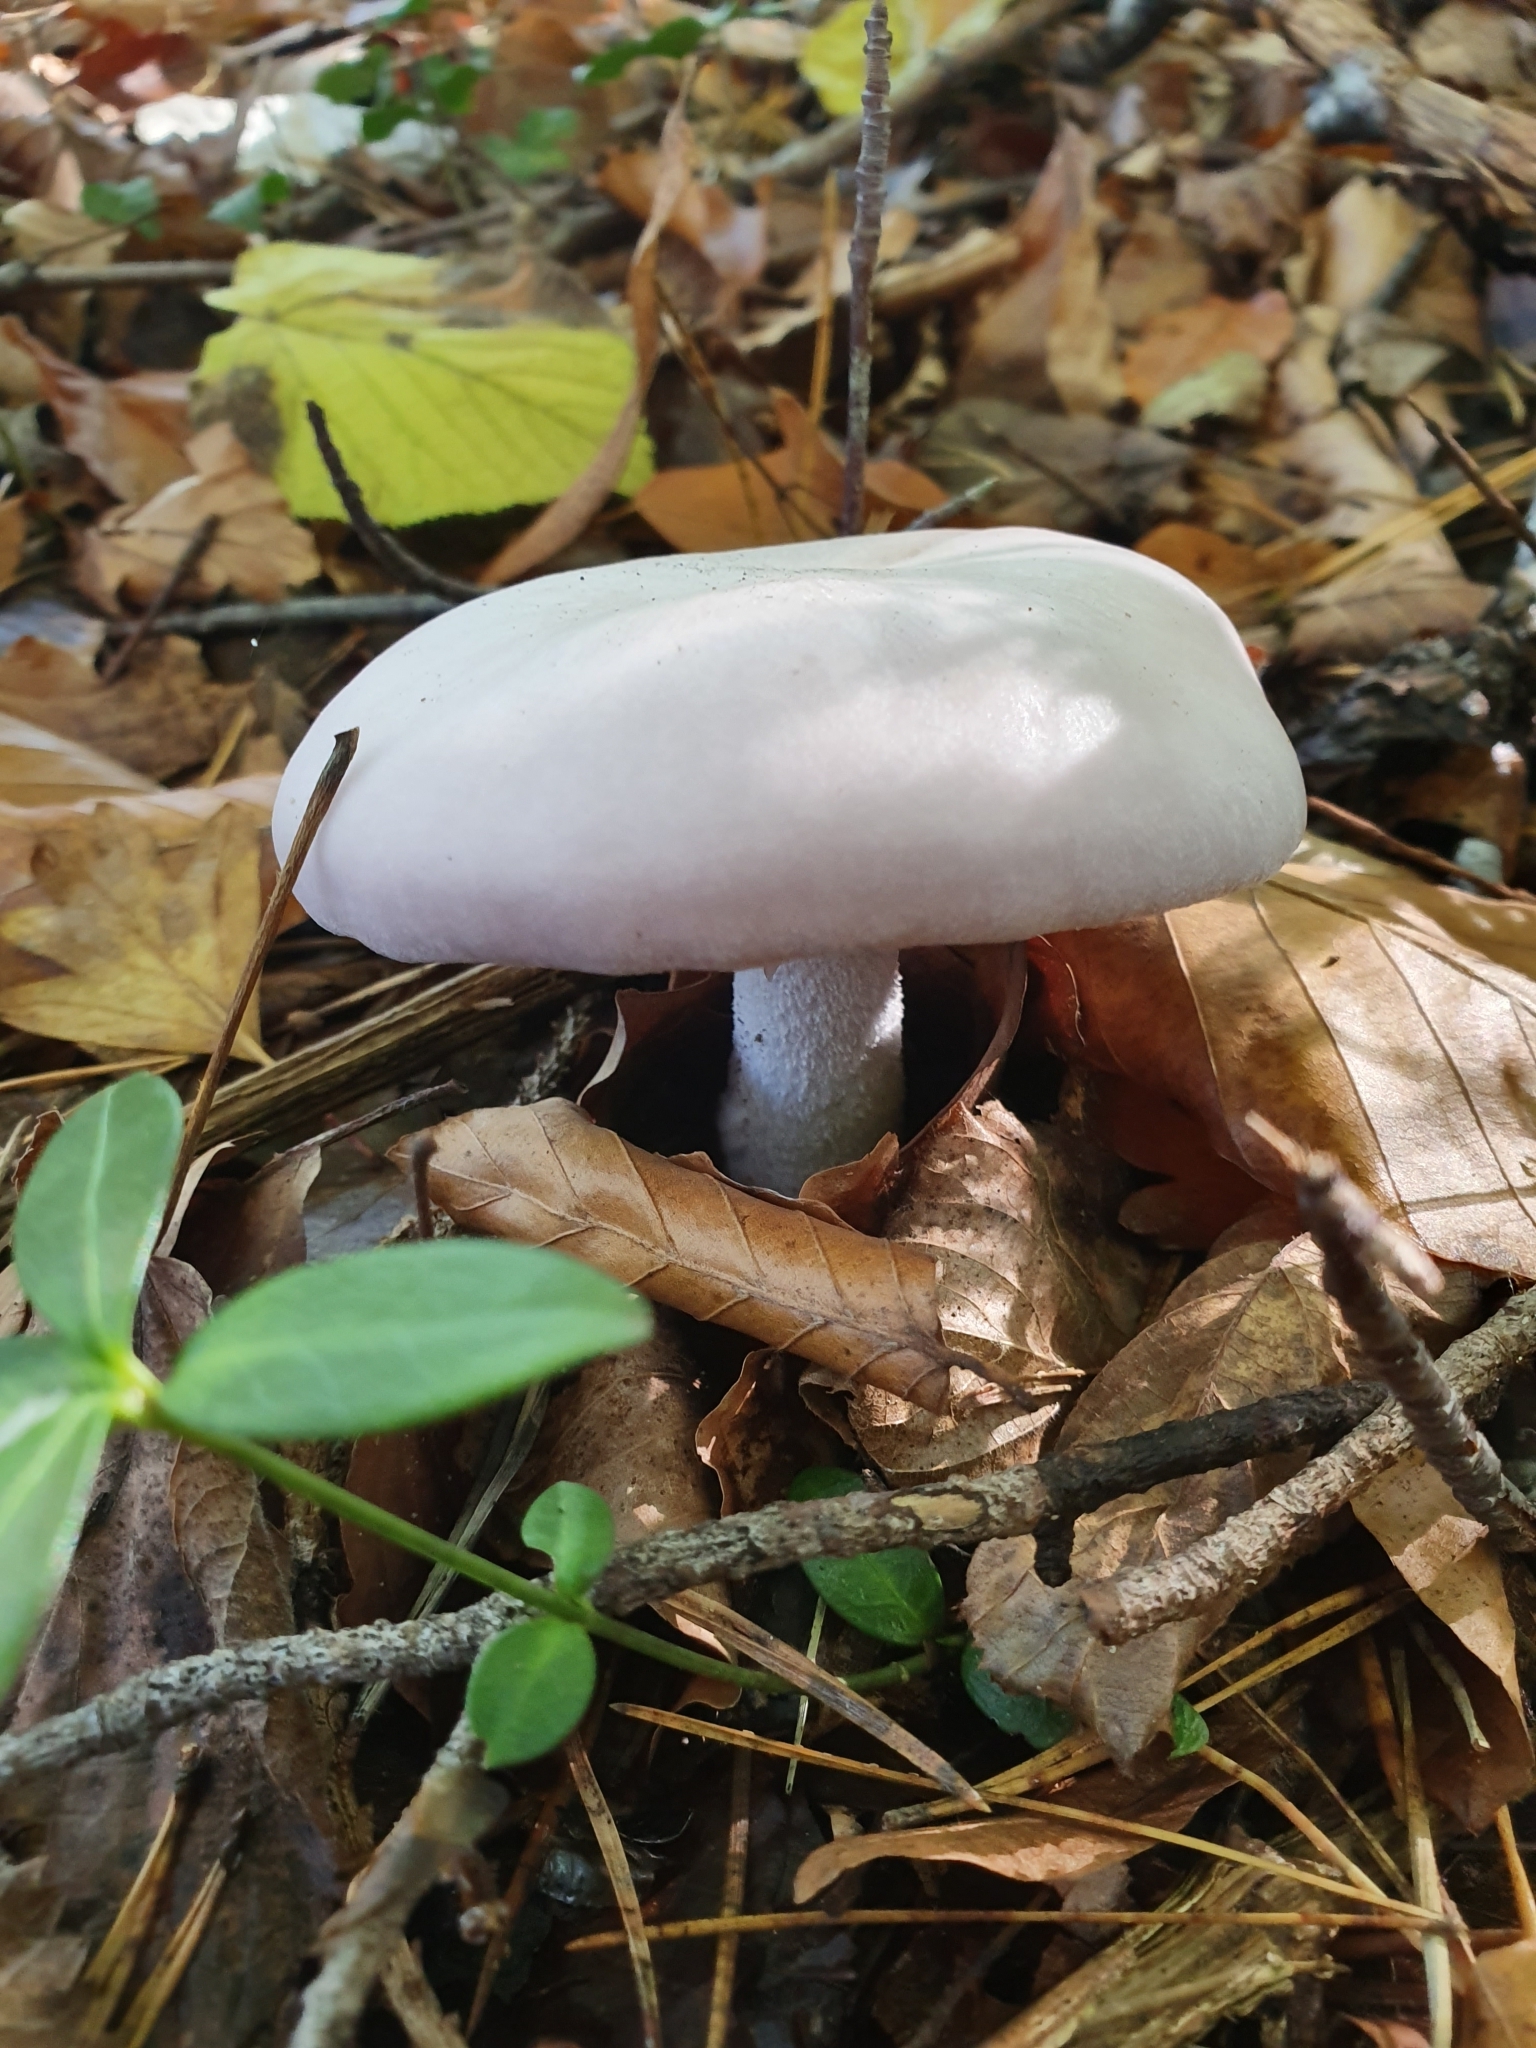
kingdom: Fungi
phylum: Basidiomycota
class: Agaricomycetes
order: Agaricales
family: Tricholomataceae
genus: Lepista
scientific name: Lepista glaucocana
